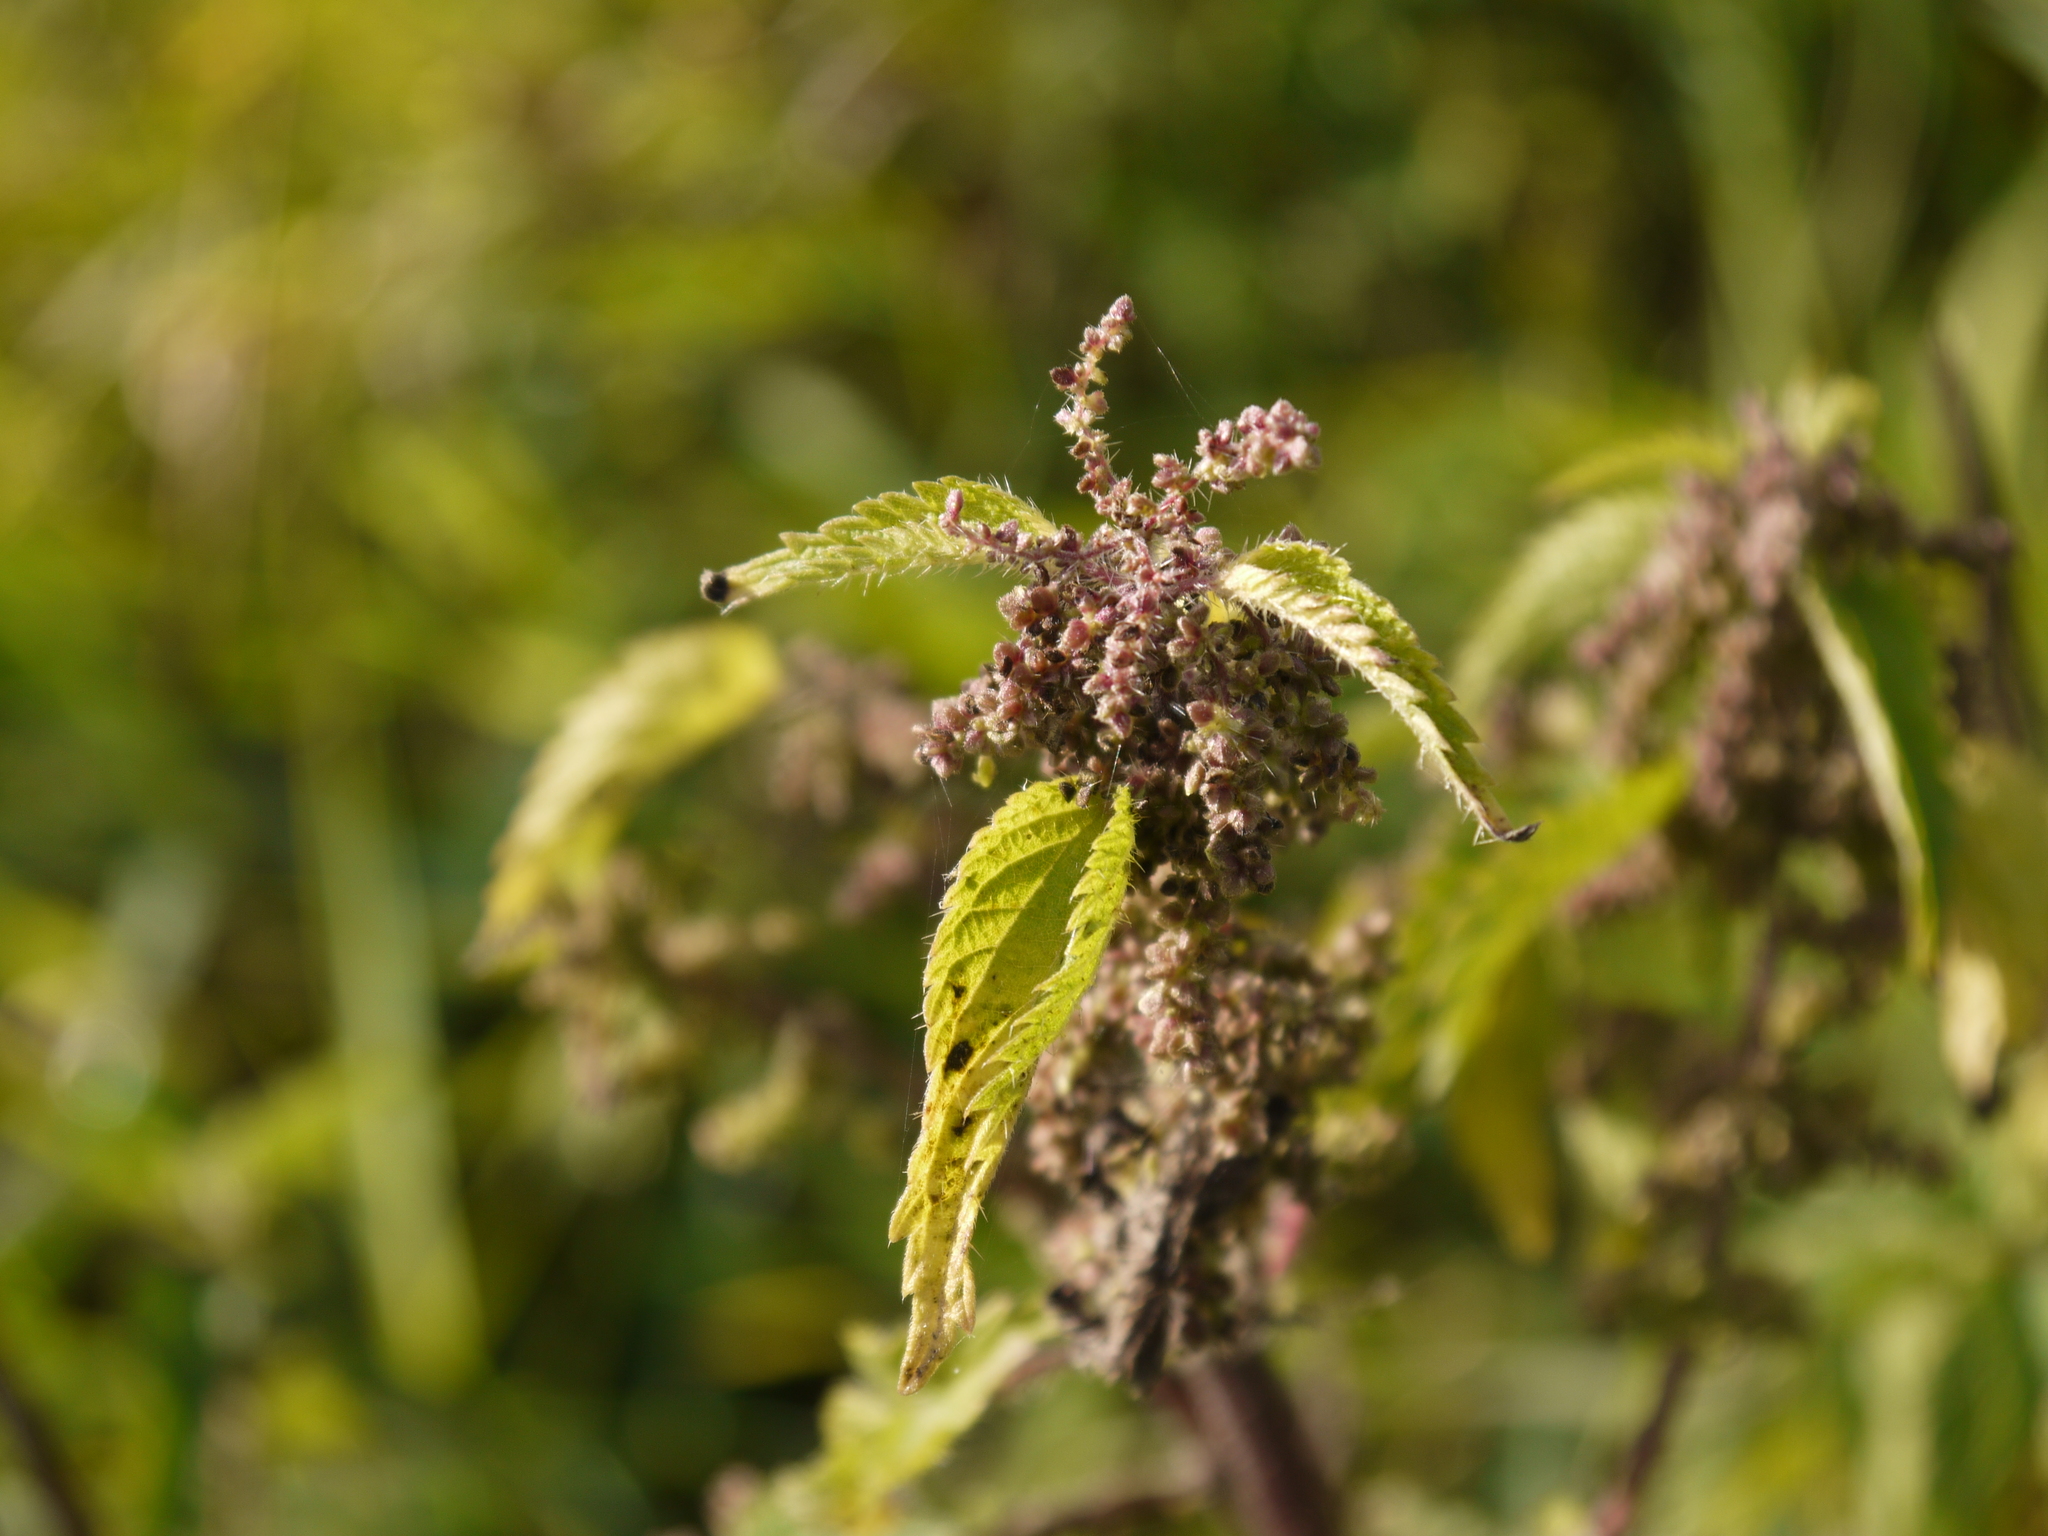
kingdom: Plantae
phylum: Tracheophyta
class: Magnoliopsida
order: Rosales
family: Urticaceae
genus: Urtica
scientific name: Urtica dioica
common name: Common nettle
